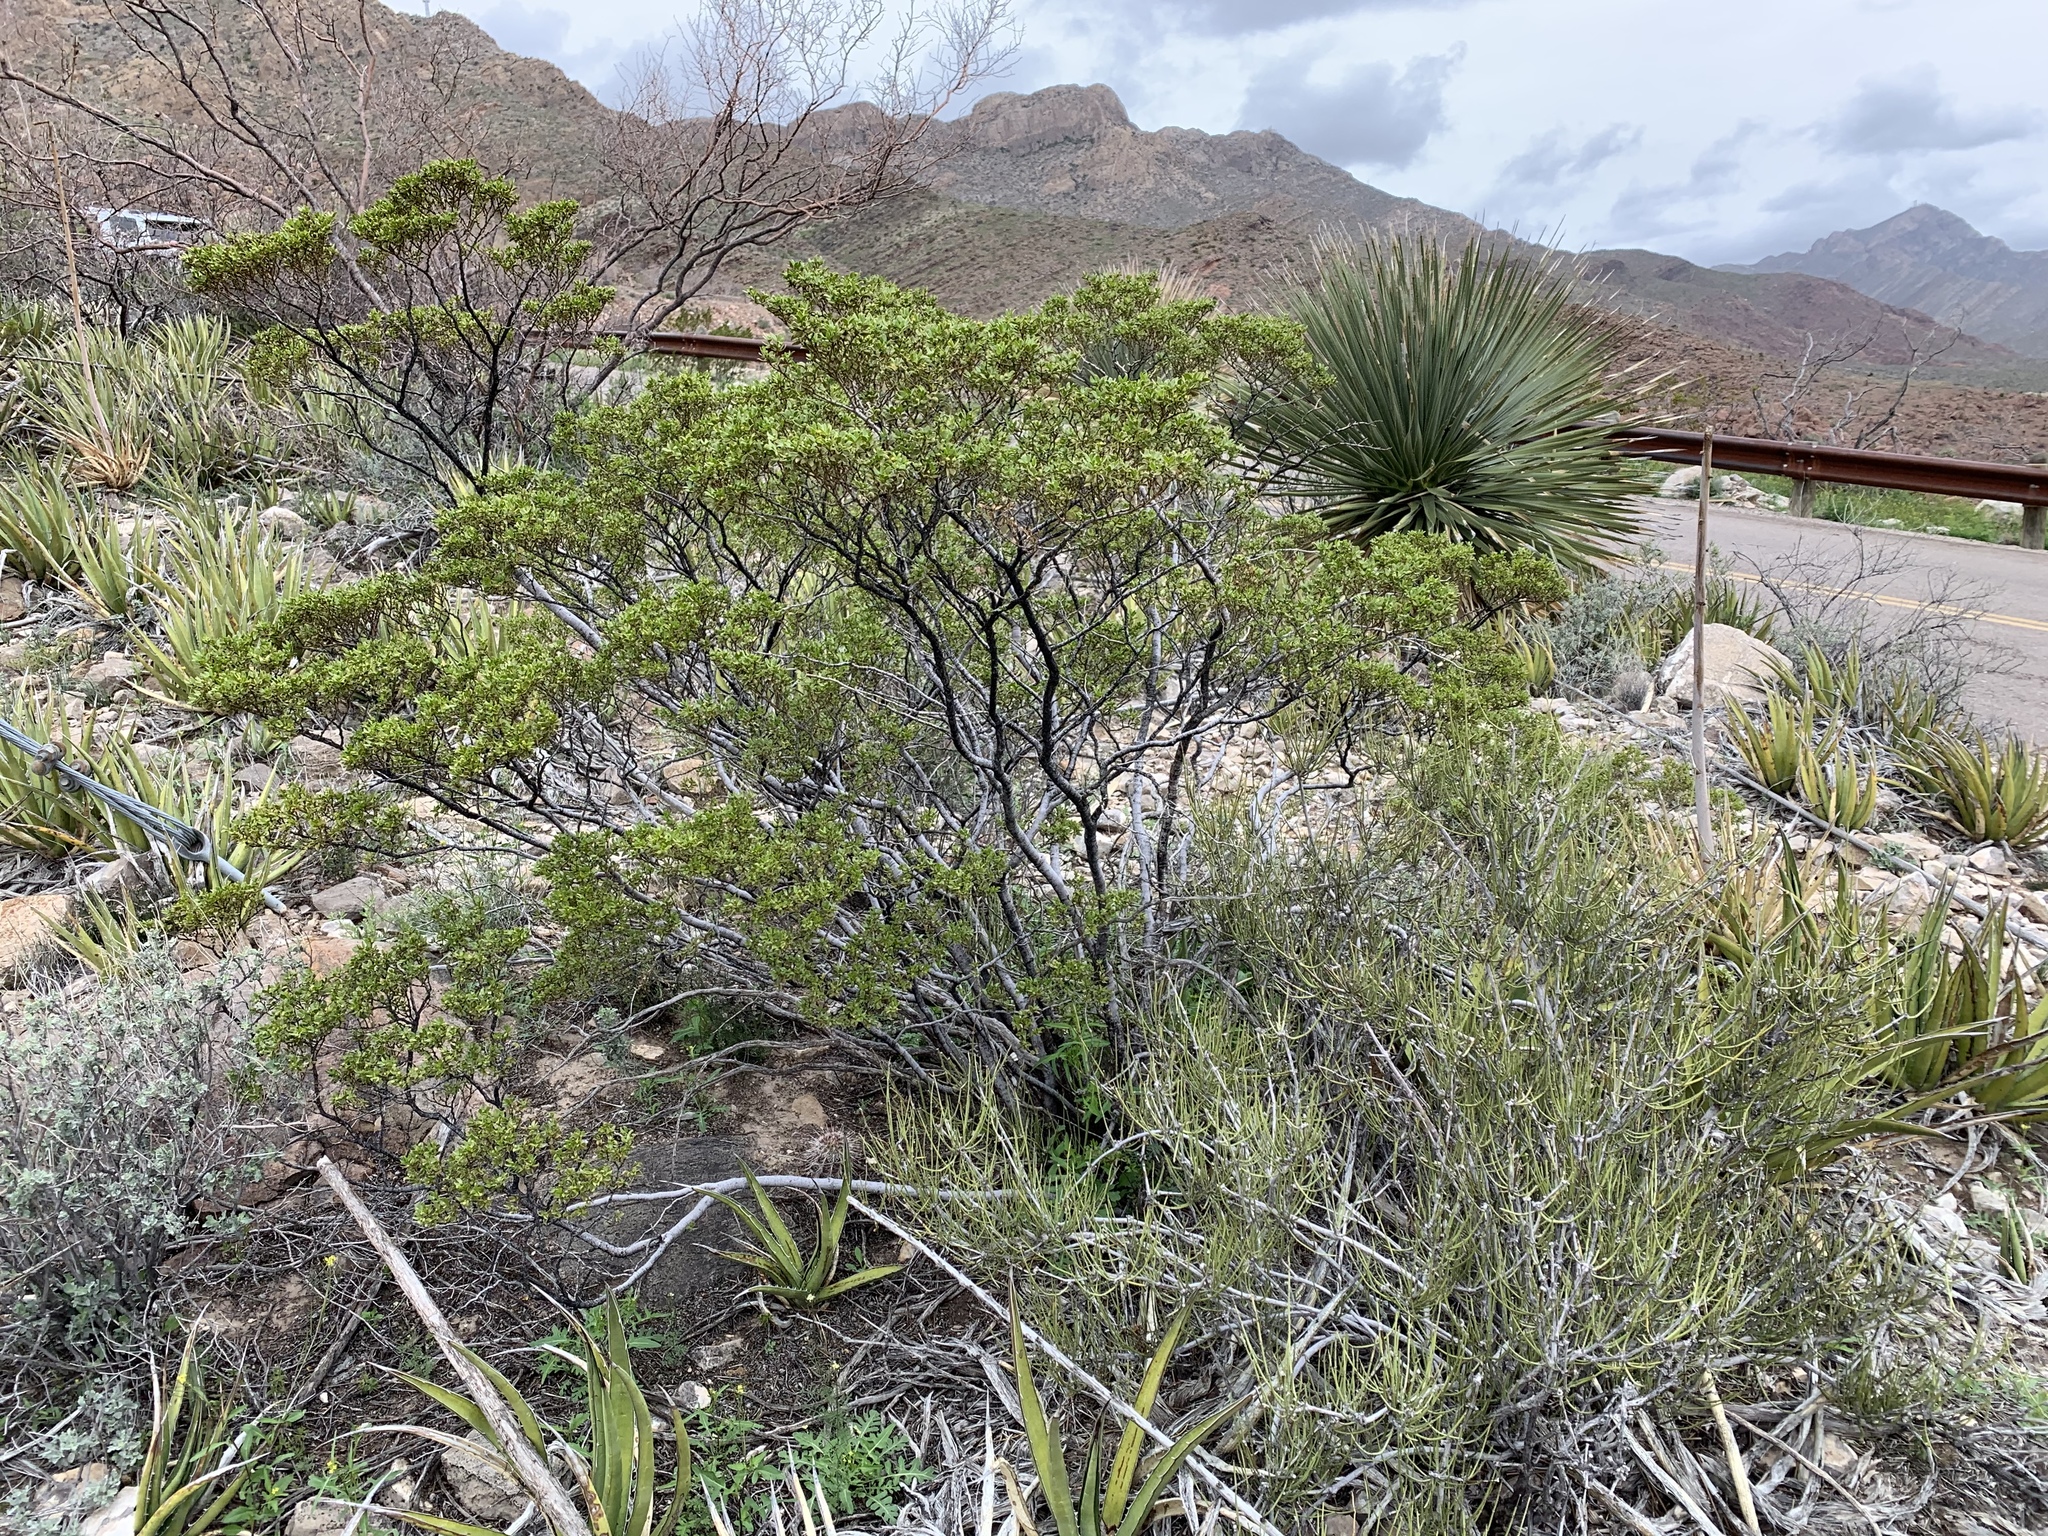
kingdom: Plantae
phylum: Tracheophyta
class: Magnoliopsida
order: Zygophyllales
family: Zygophyllaceae
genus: Larrea
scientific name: Larrea tridentata
